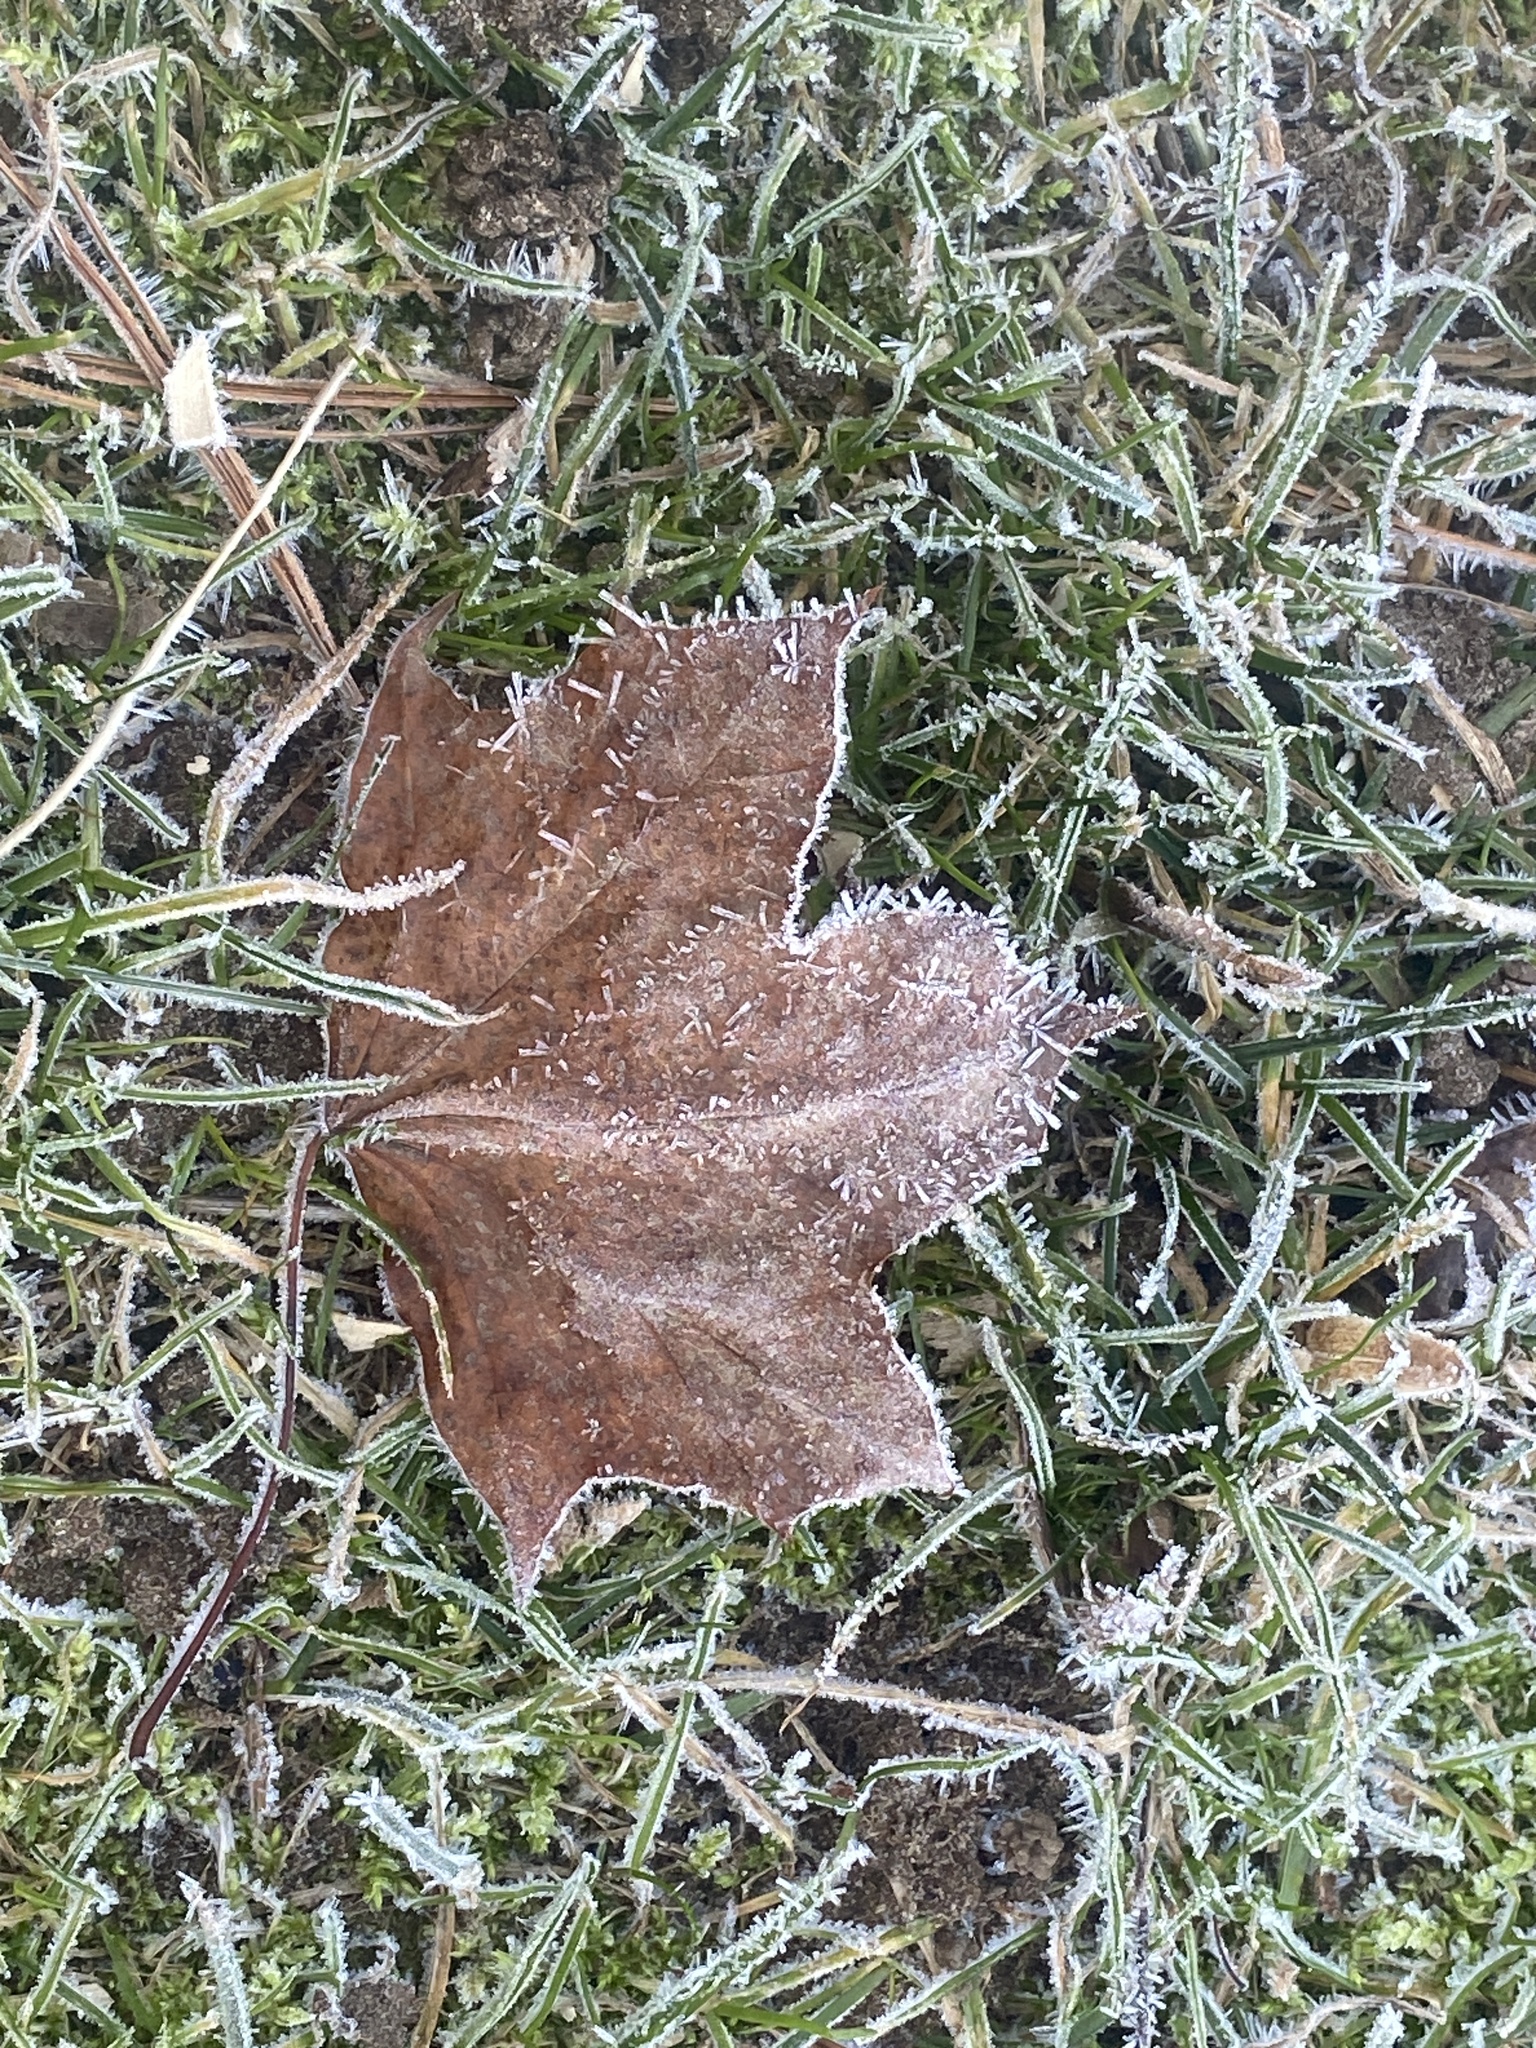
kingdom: Plantae
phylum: Tracheophyta
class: Magnoliopsida
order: Sapindales
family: Sapindaceae
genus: Acer
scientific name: Acer platanoides
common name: Norway maple
